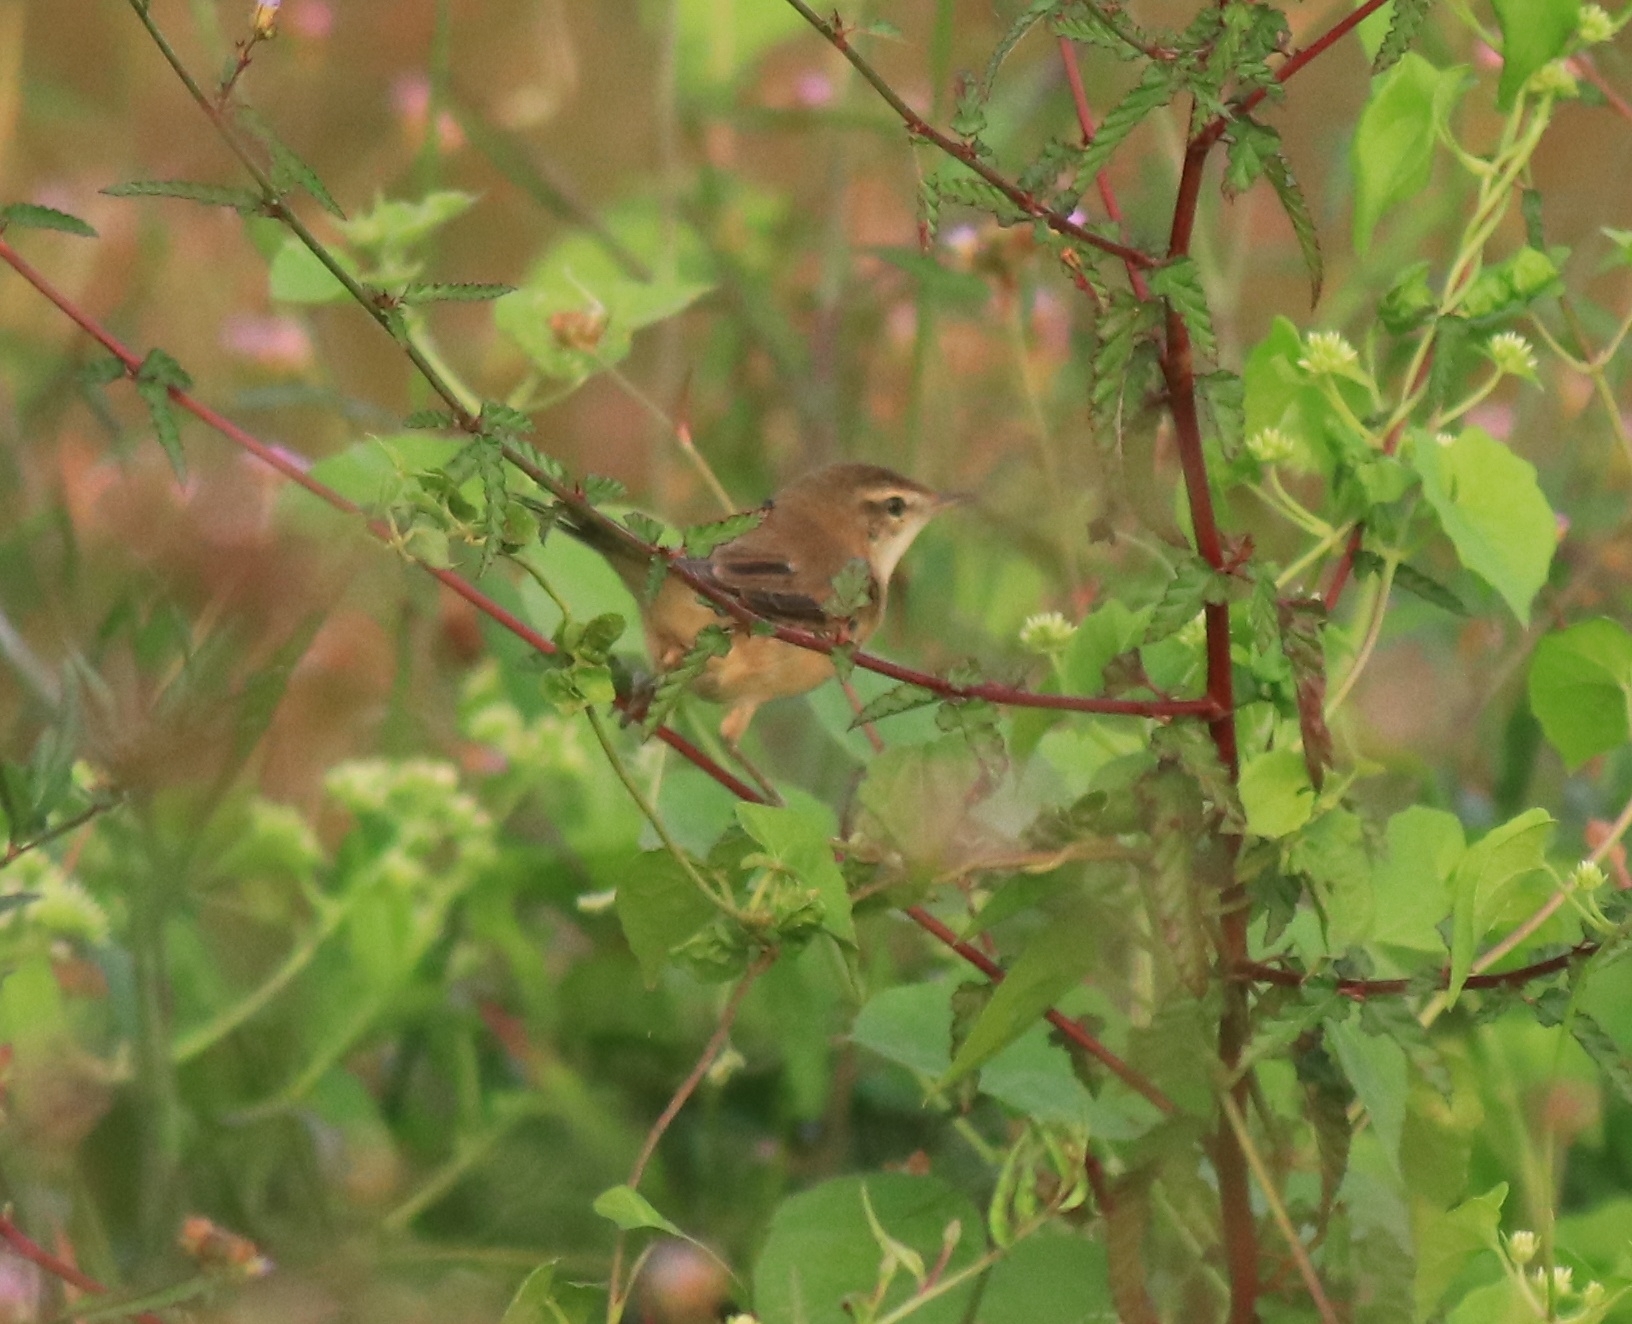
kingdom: Animalia
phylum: Chordata
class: Aves
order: Passeriformes
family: Acrocephalidae
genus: Acrocephalus
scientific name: Acrocephalus agricola
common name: Paddyfield warbler
